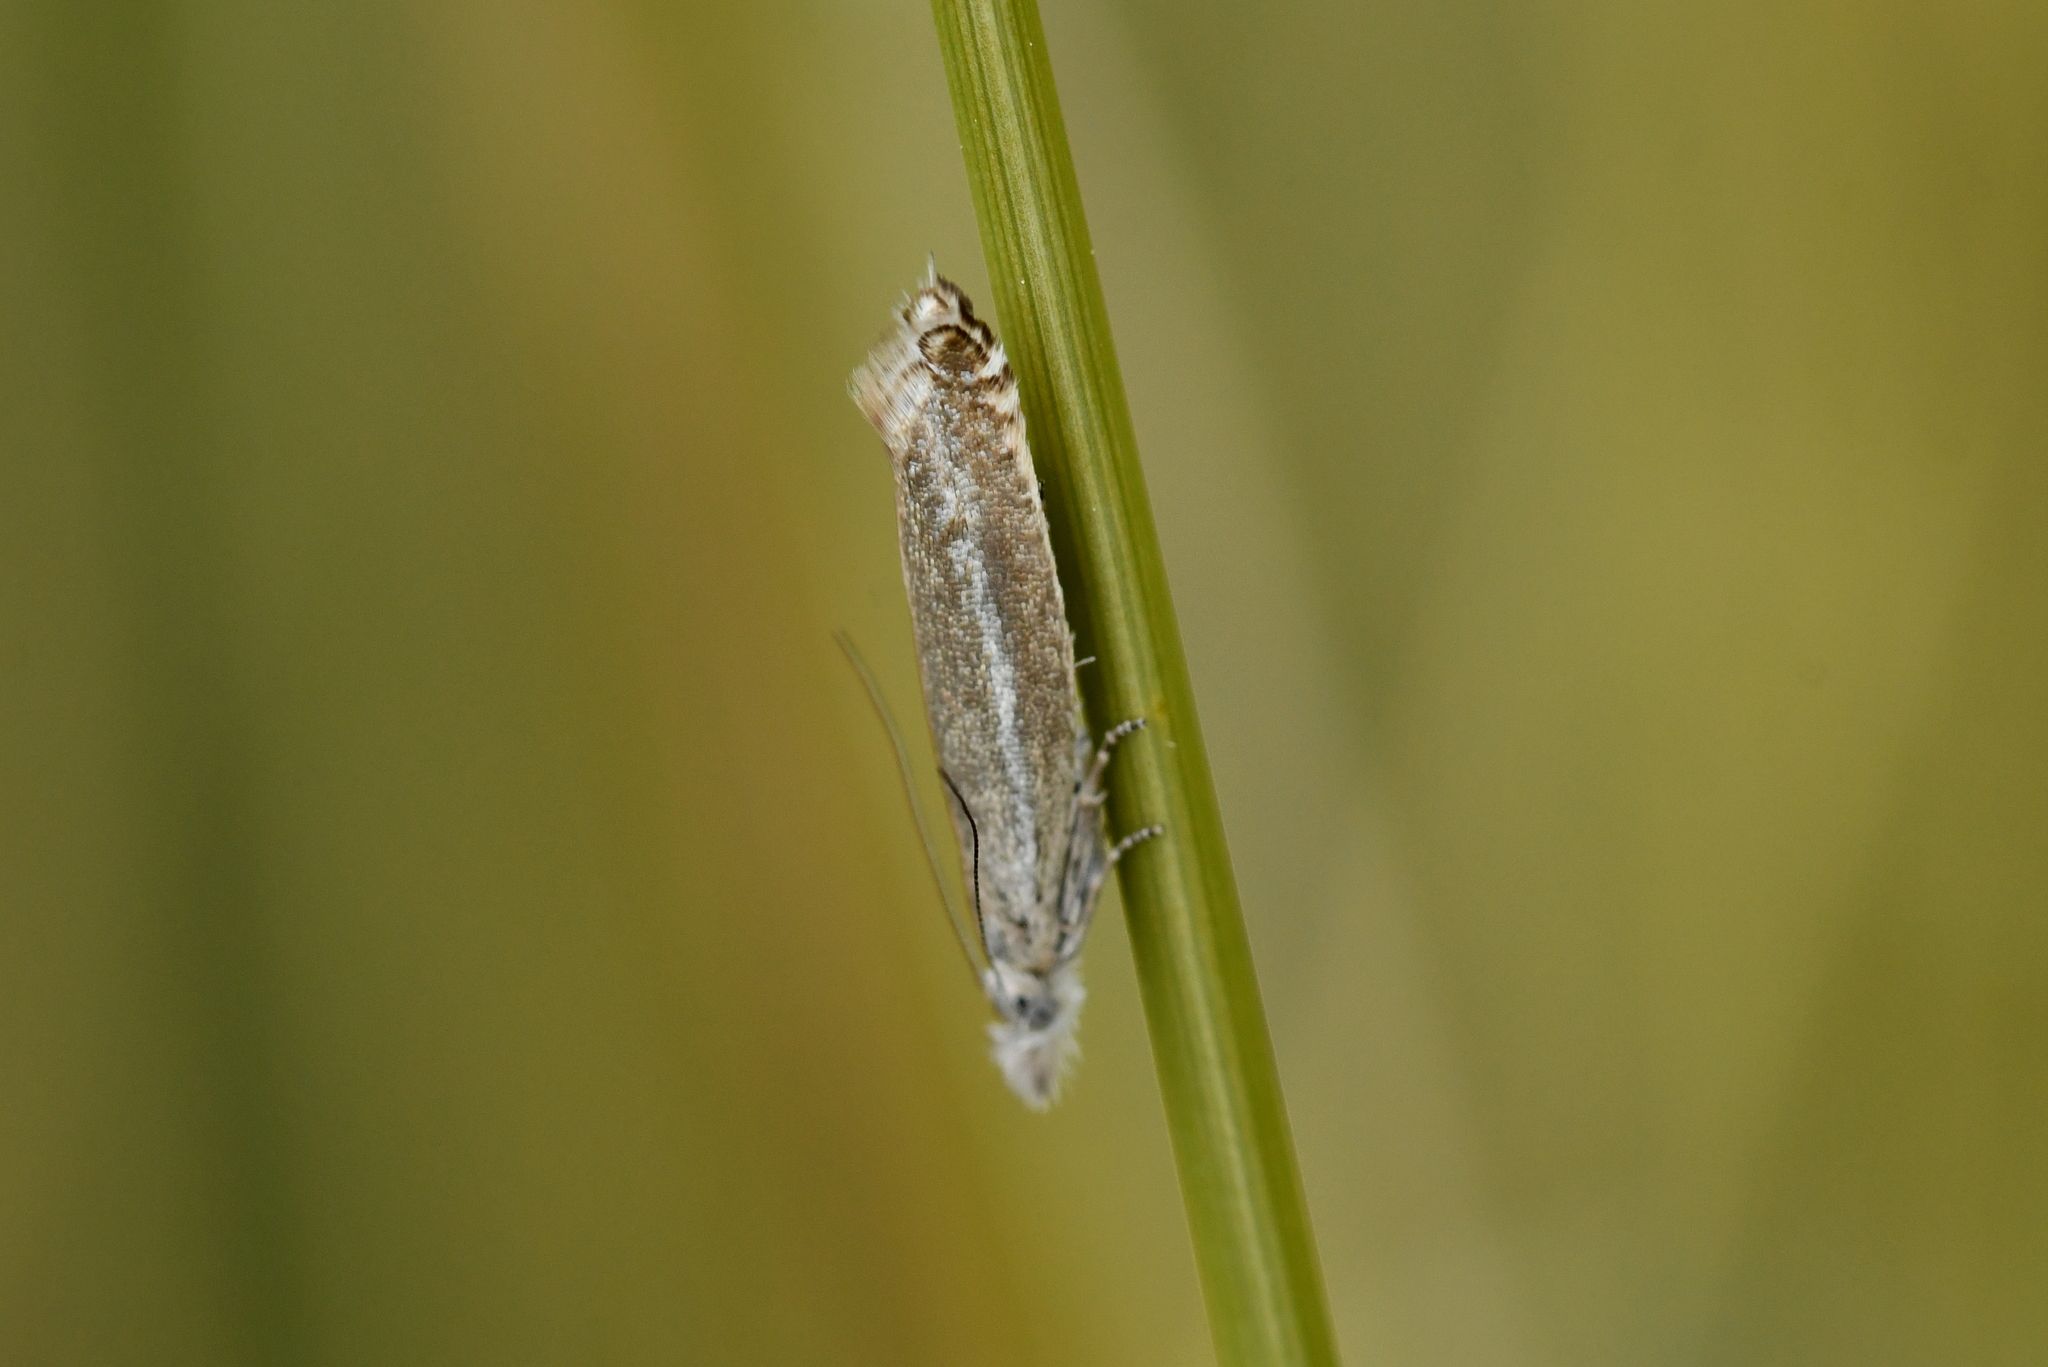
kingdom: Animalia
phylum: Arthropoda
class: Insecta
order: Lepidoptera
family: Glyphipterigidae
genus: Glyphipterix
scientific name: Glyphipterix barbata
